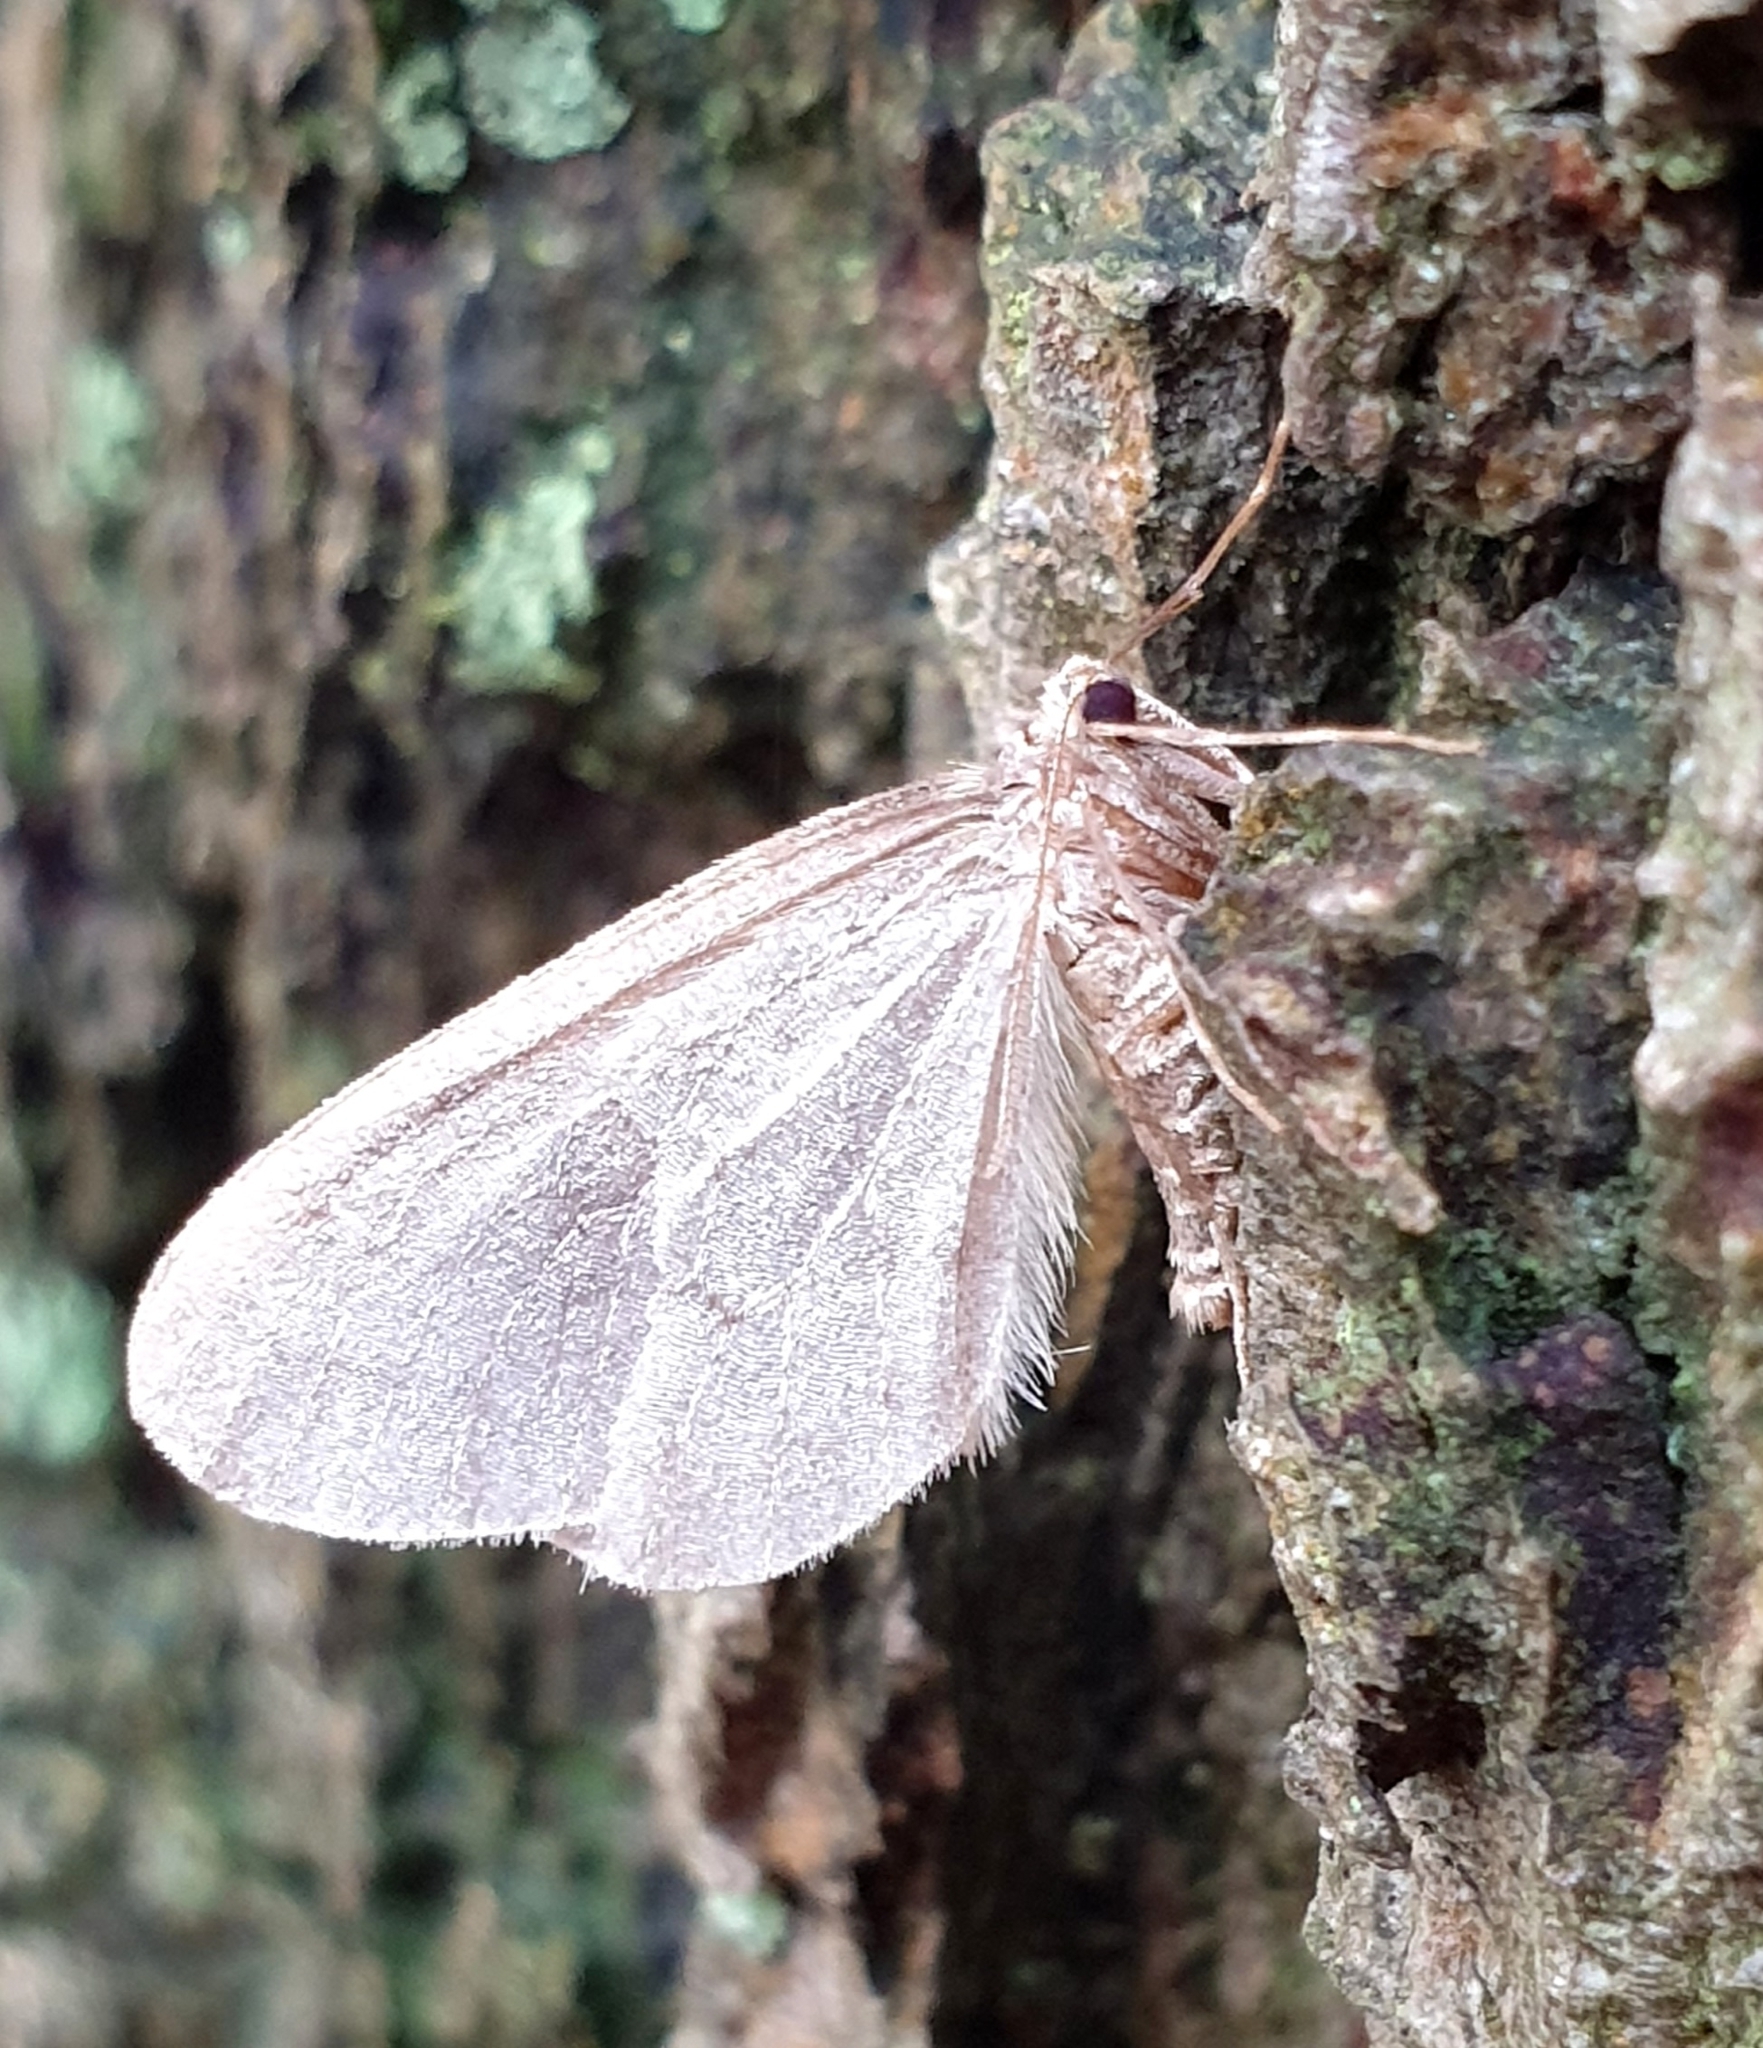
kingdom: Animalia
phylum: Arthropoda
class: Insecta
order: Lepidoptera
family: Geometridae
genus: Operophtera
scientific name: Operophtera brumata
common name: Winter moth
